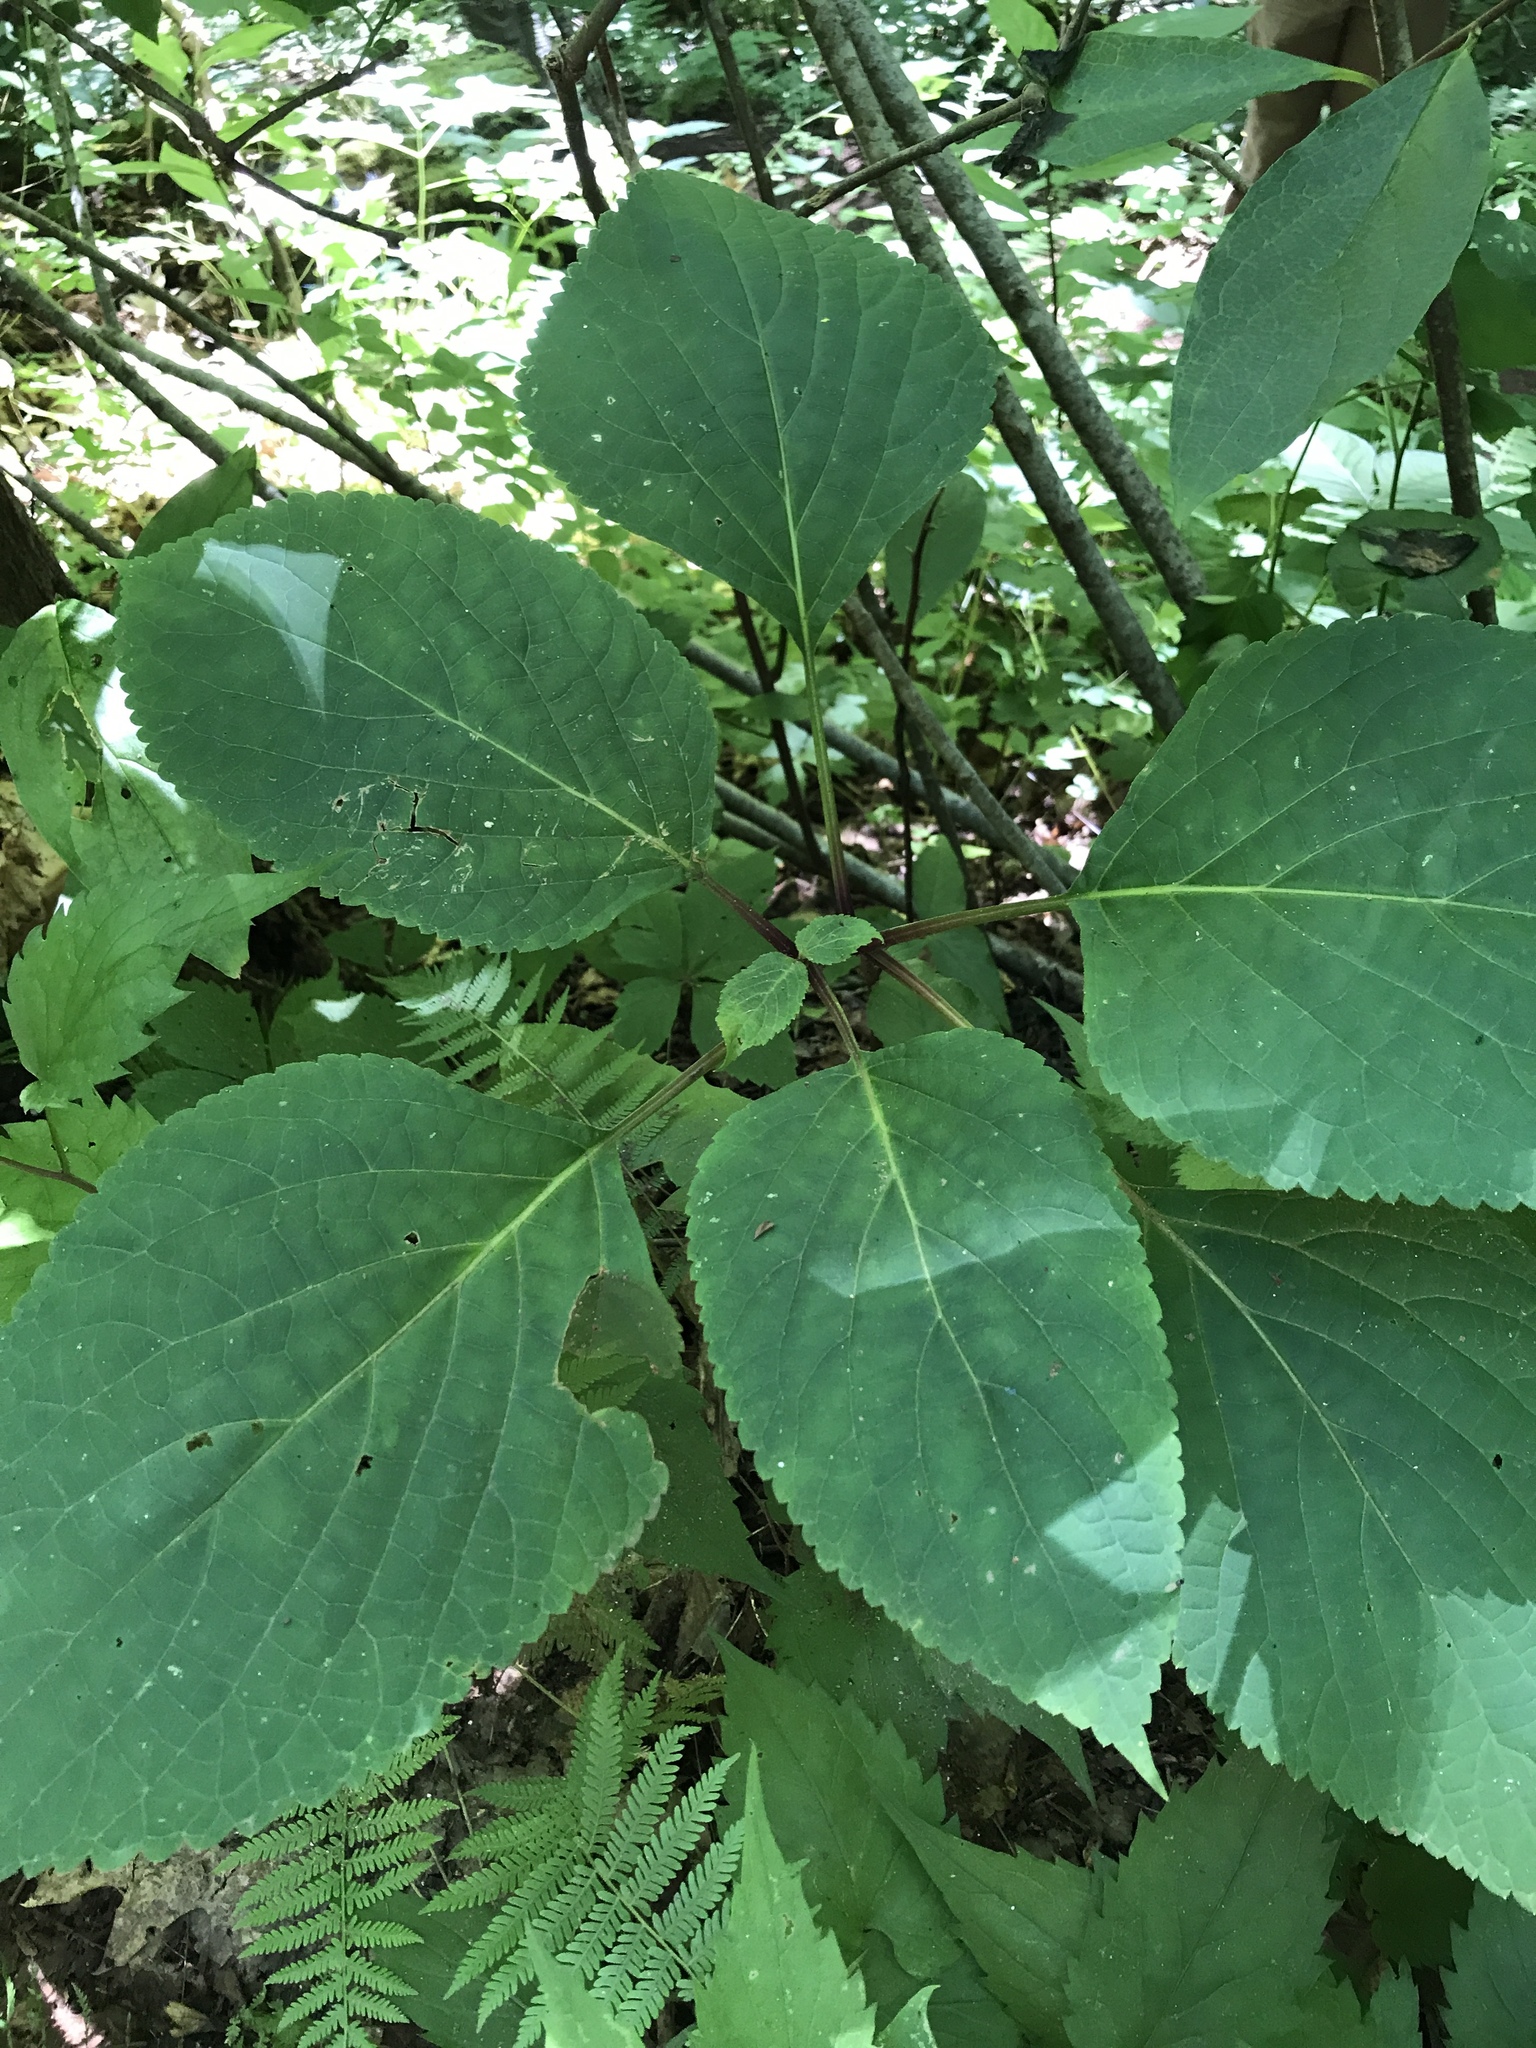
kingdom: Plantae
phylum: Tracheophyta
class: Magnoliopsida
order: Lamiales
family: Lamiaceae
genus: Collinsonia
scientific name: Collinsonia canadensis
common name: Northern horsebalm
